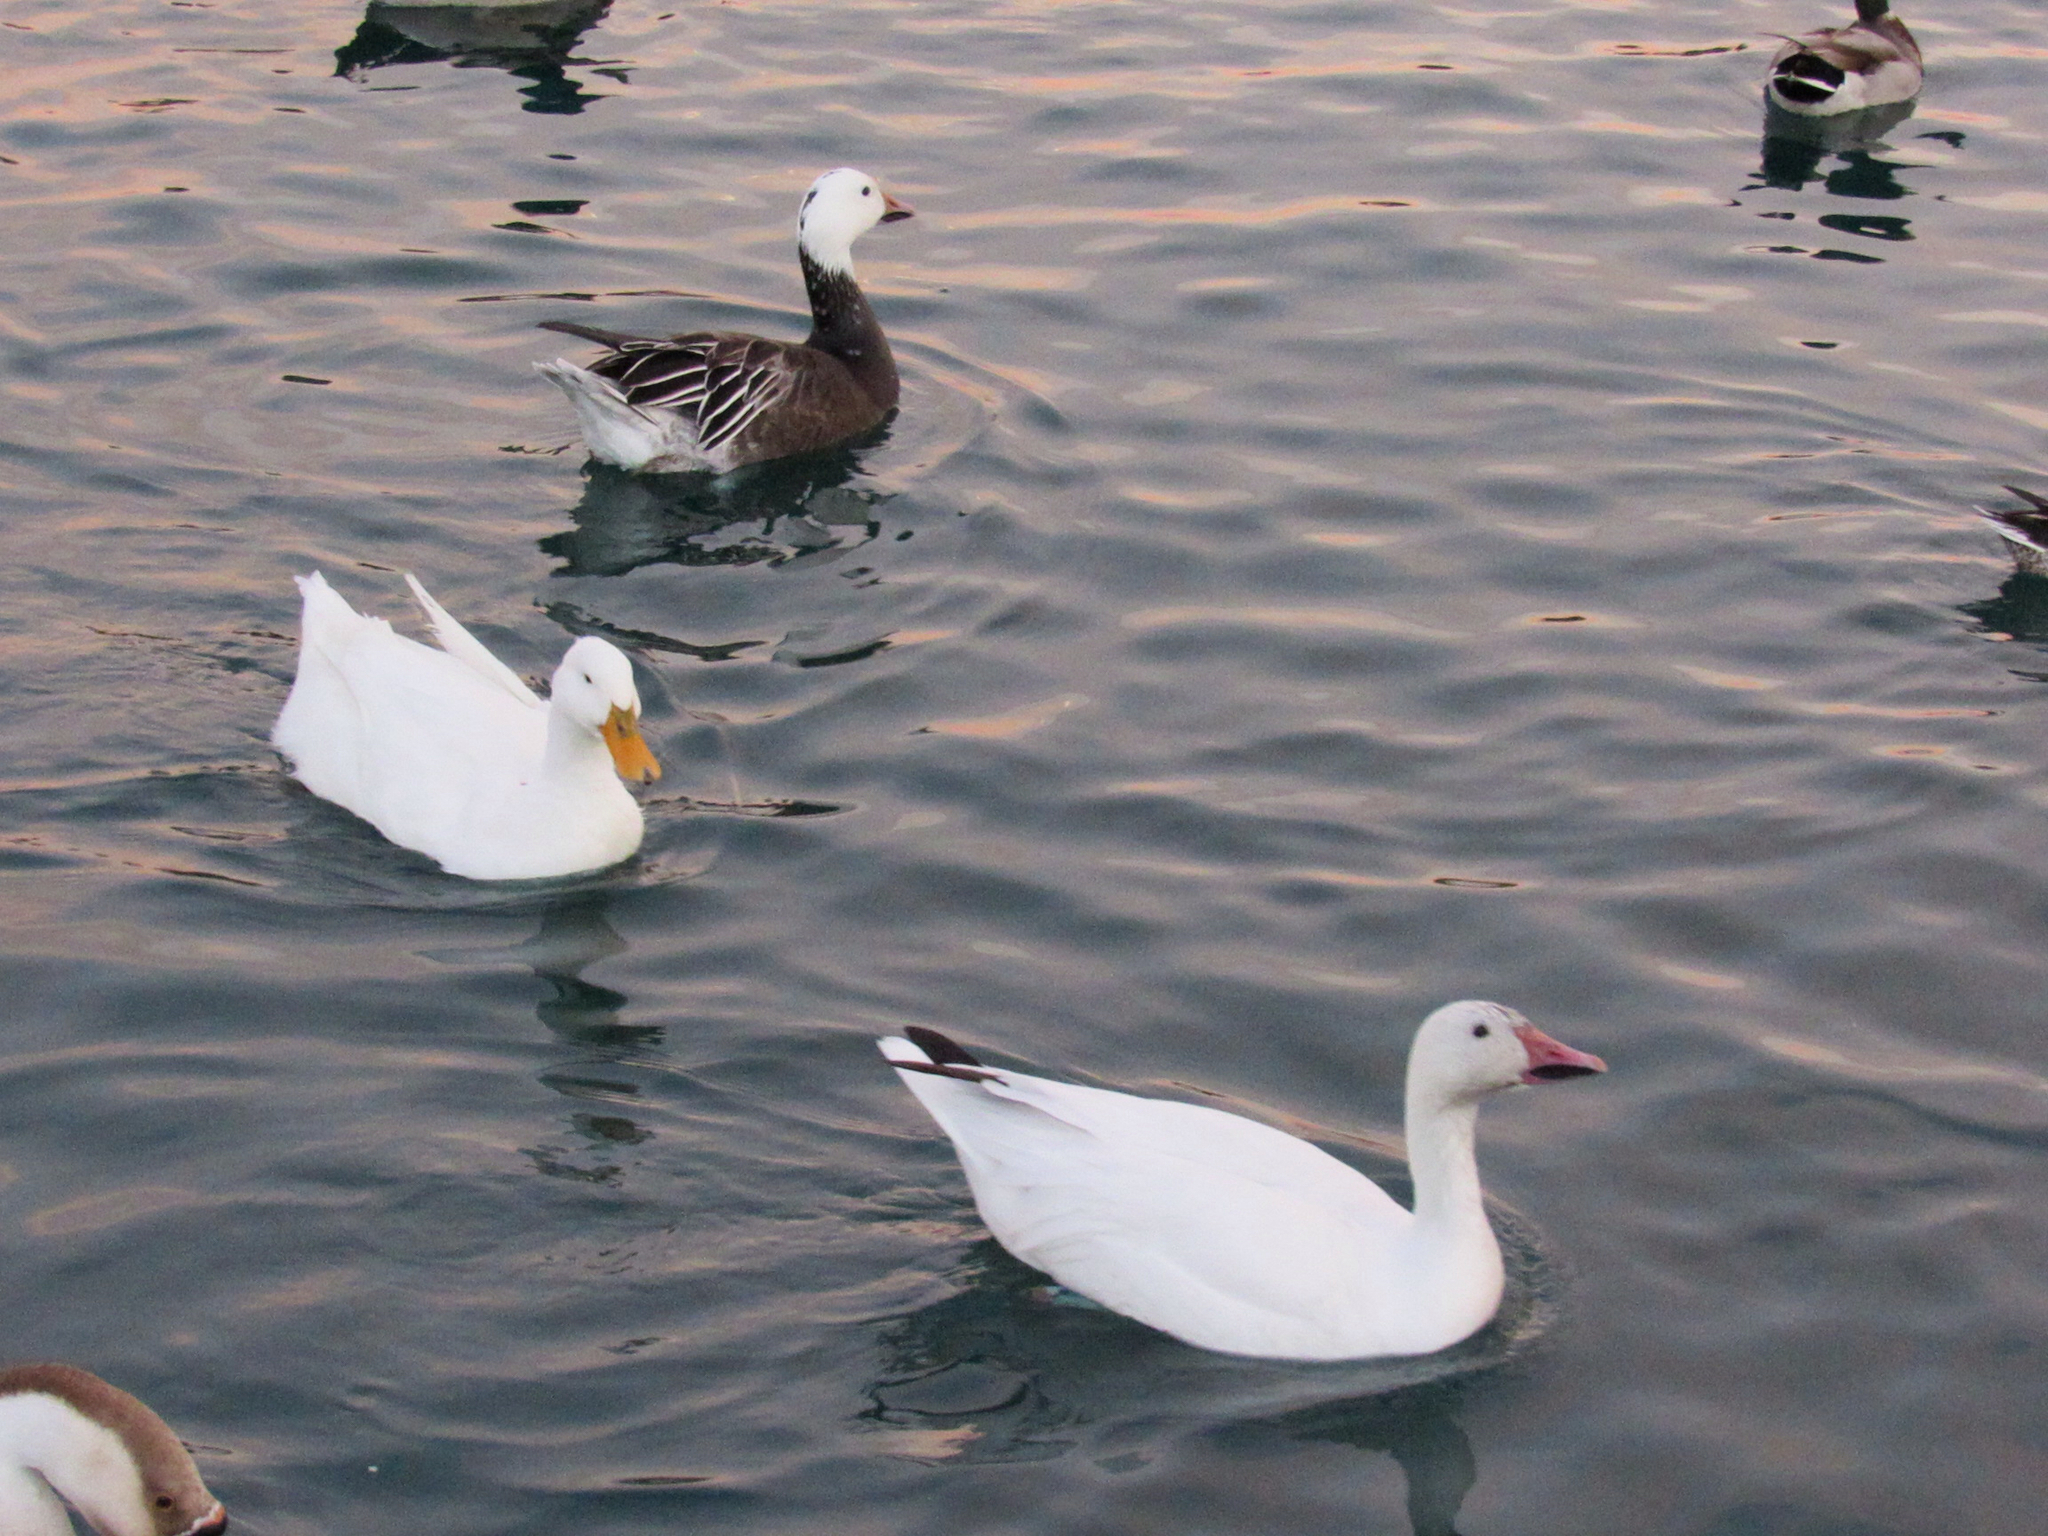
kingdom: Animalia
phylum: Chordata
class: Aves
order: Anseriformes
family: Anatidae
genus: Anas
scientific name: Anas platyrhynchos
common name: Mallard
